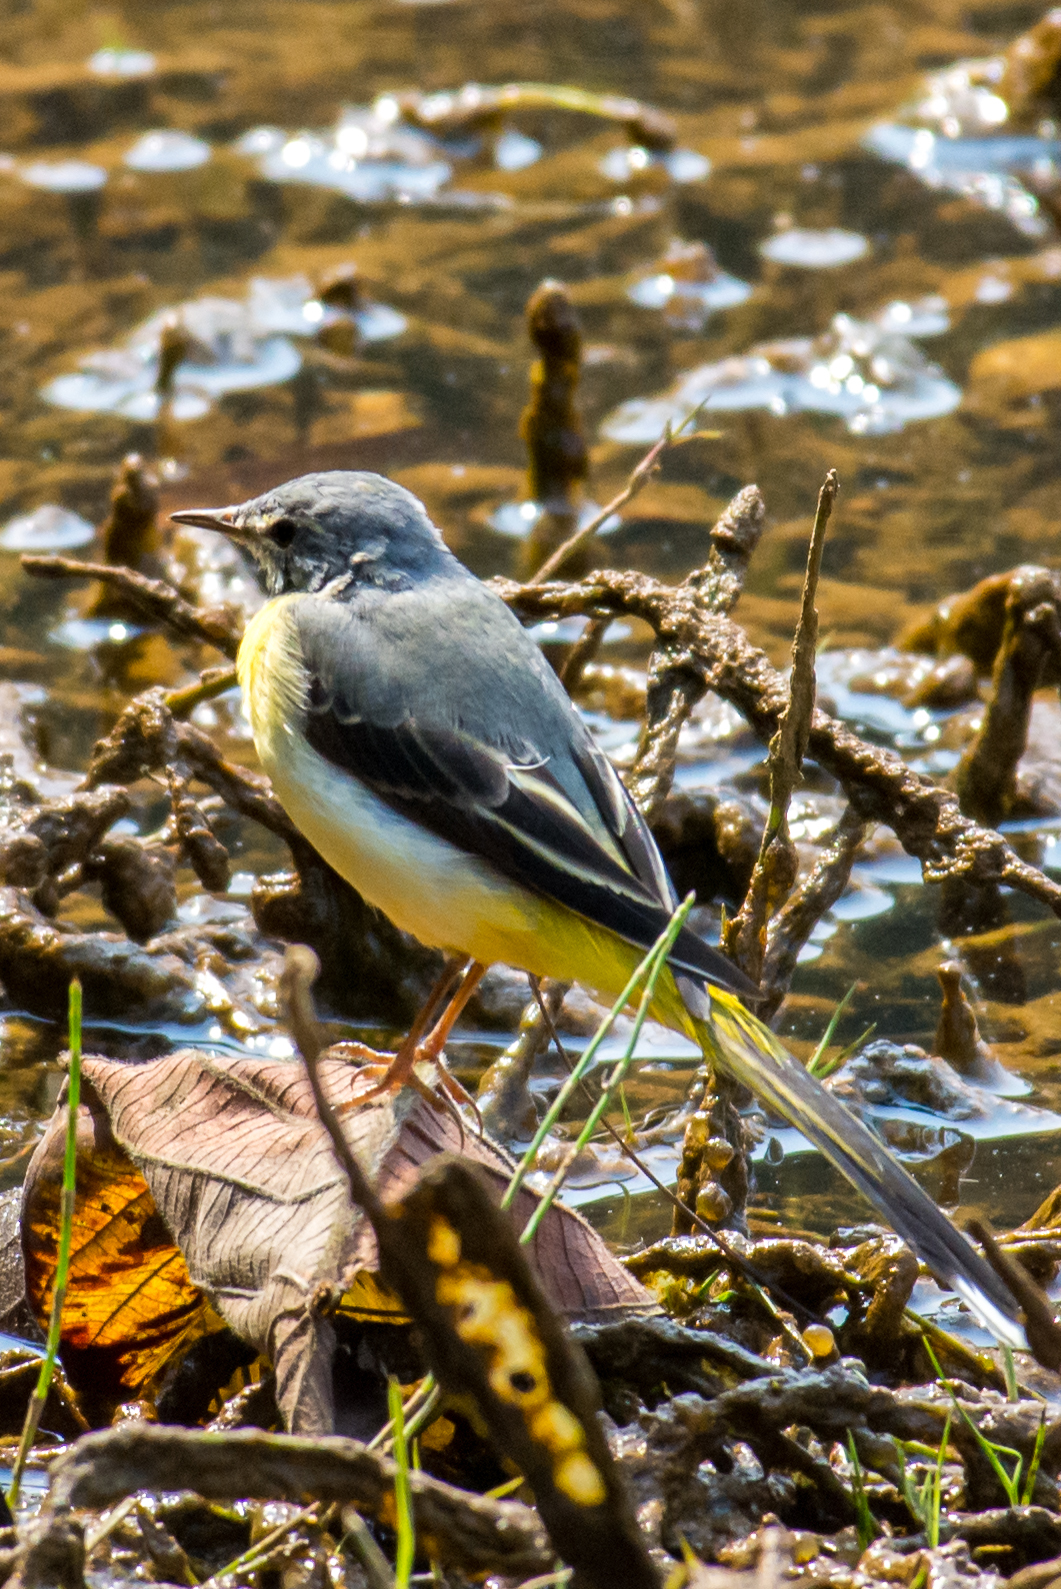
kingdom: Animalia
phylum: Chordata
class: Aves
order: Passeriformes
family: Motacillidae
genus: Motacilla
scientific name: Motacilla cinerea
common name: Grey wagtail
